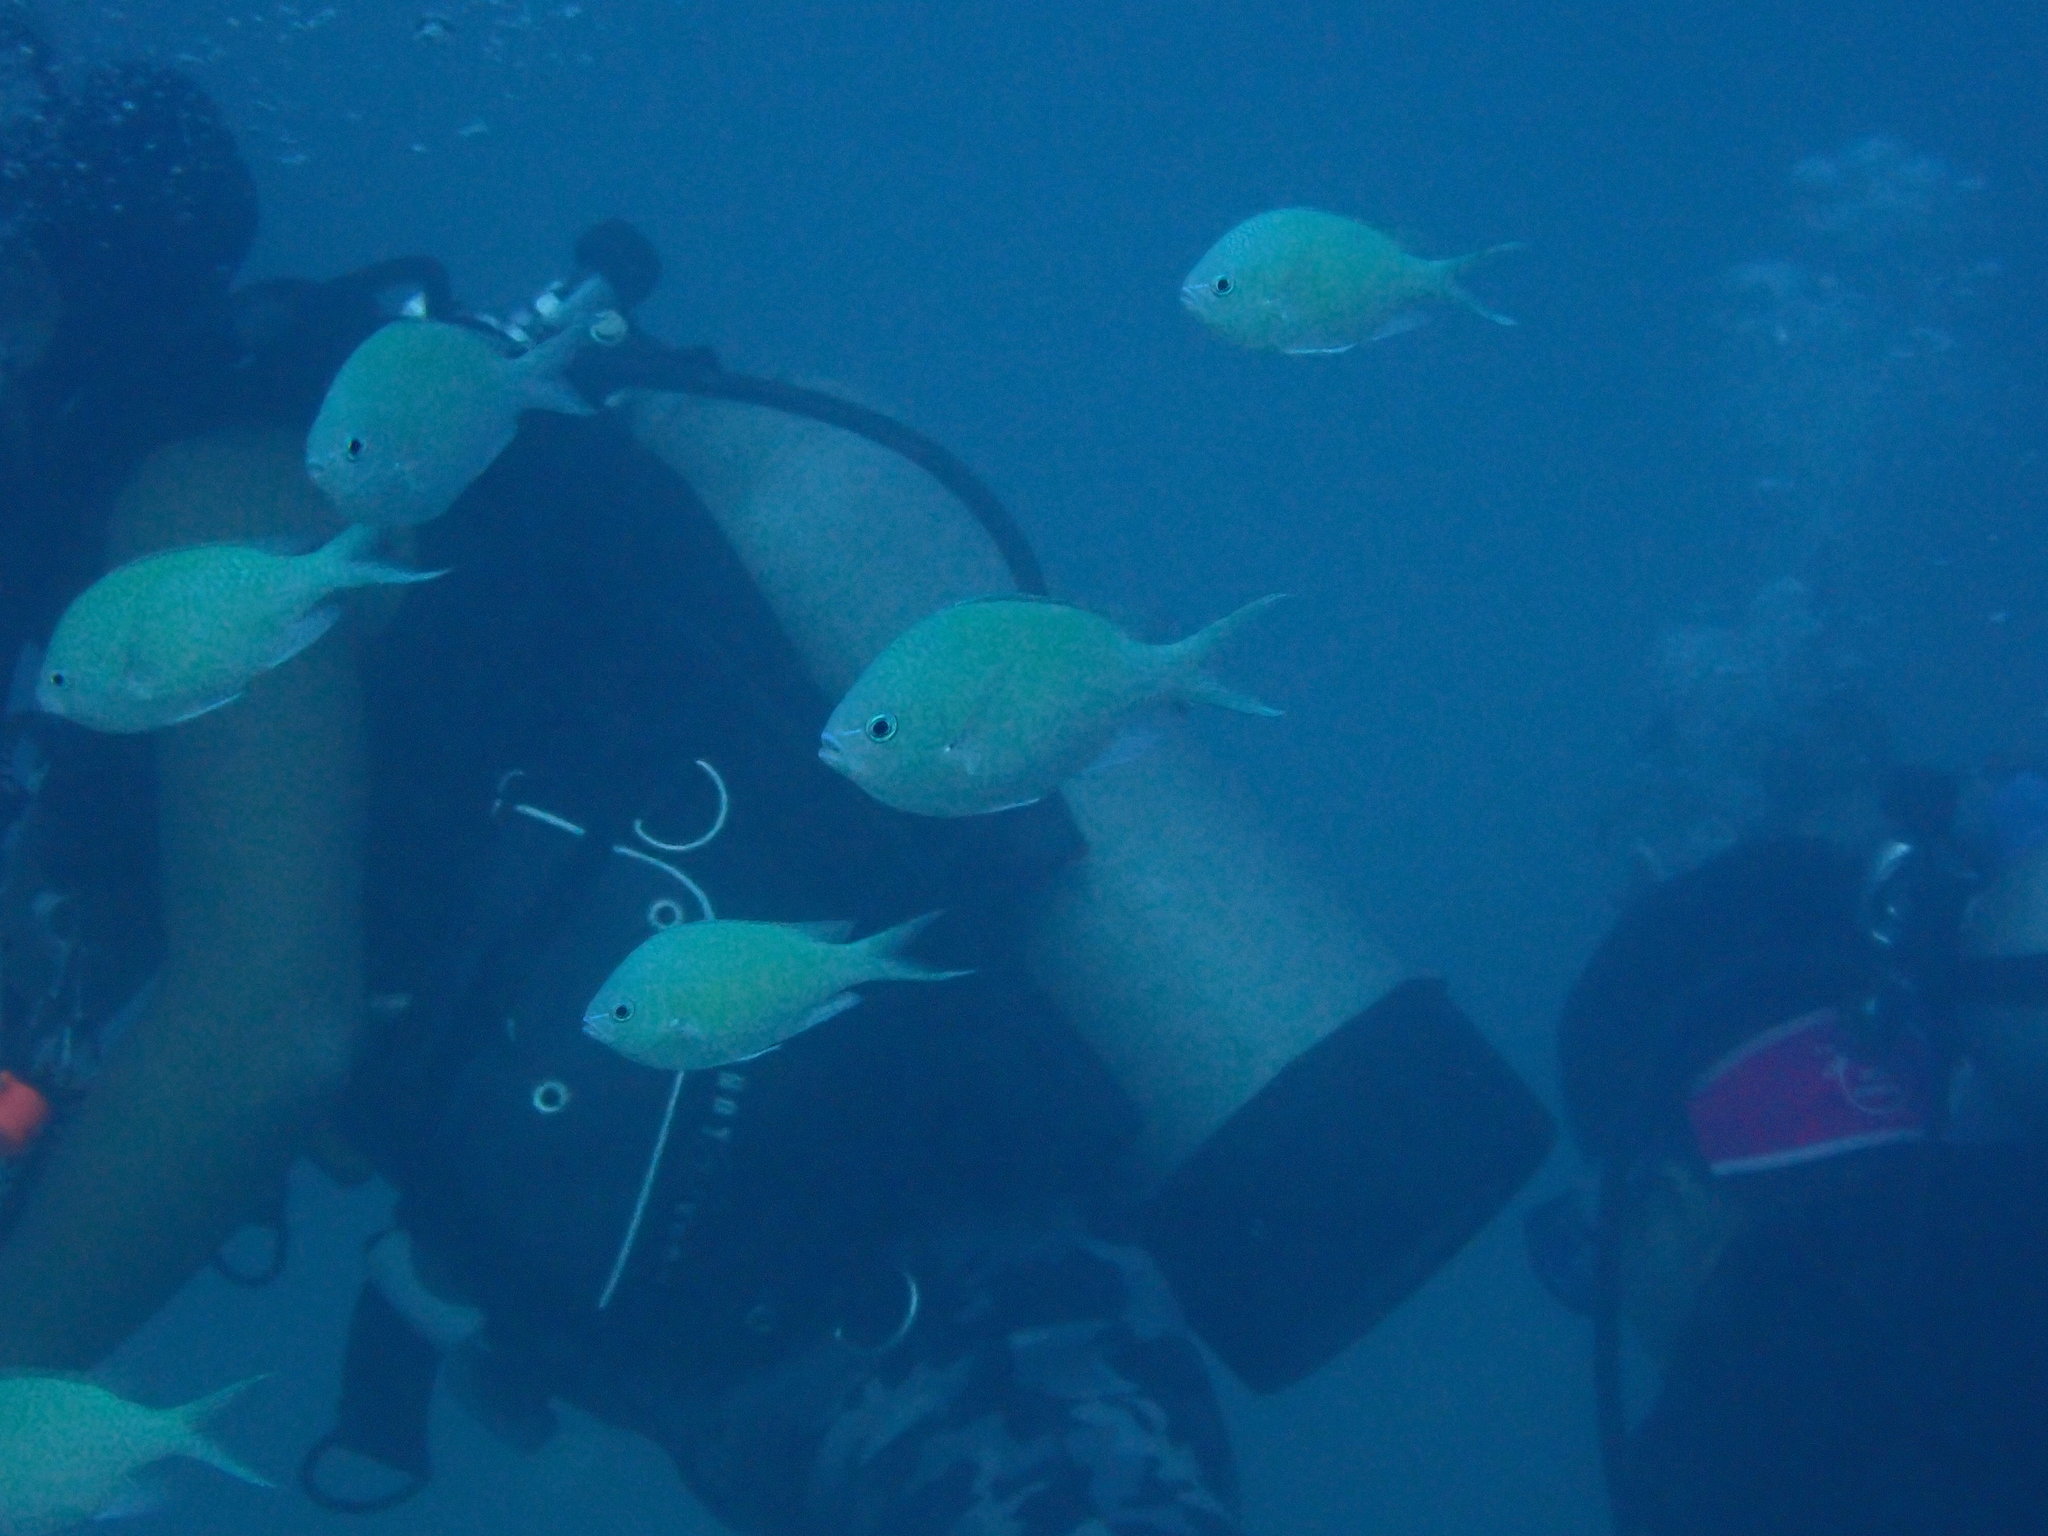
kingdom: Animalia
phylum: Chordata
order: Perciformes
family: Pomacentridae
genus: Chromis
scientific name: Chromis viridis
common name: Blue-green chromis
